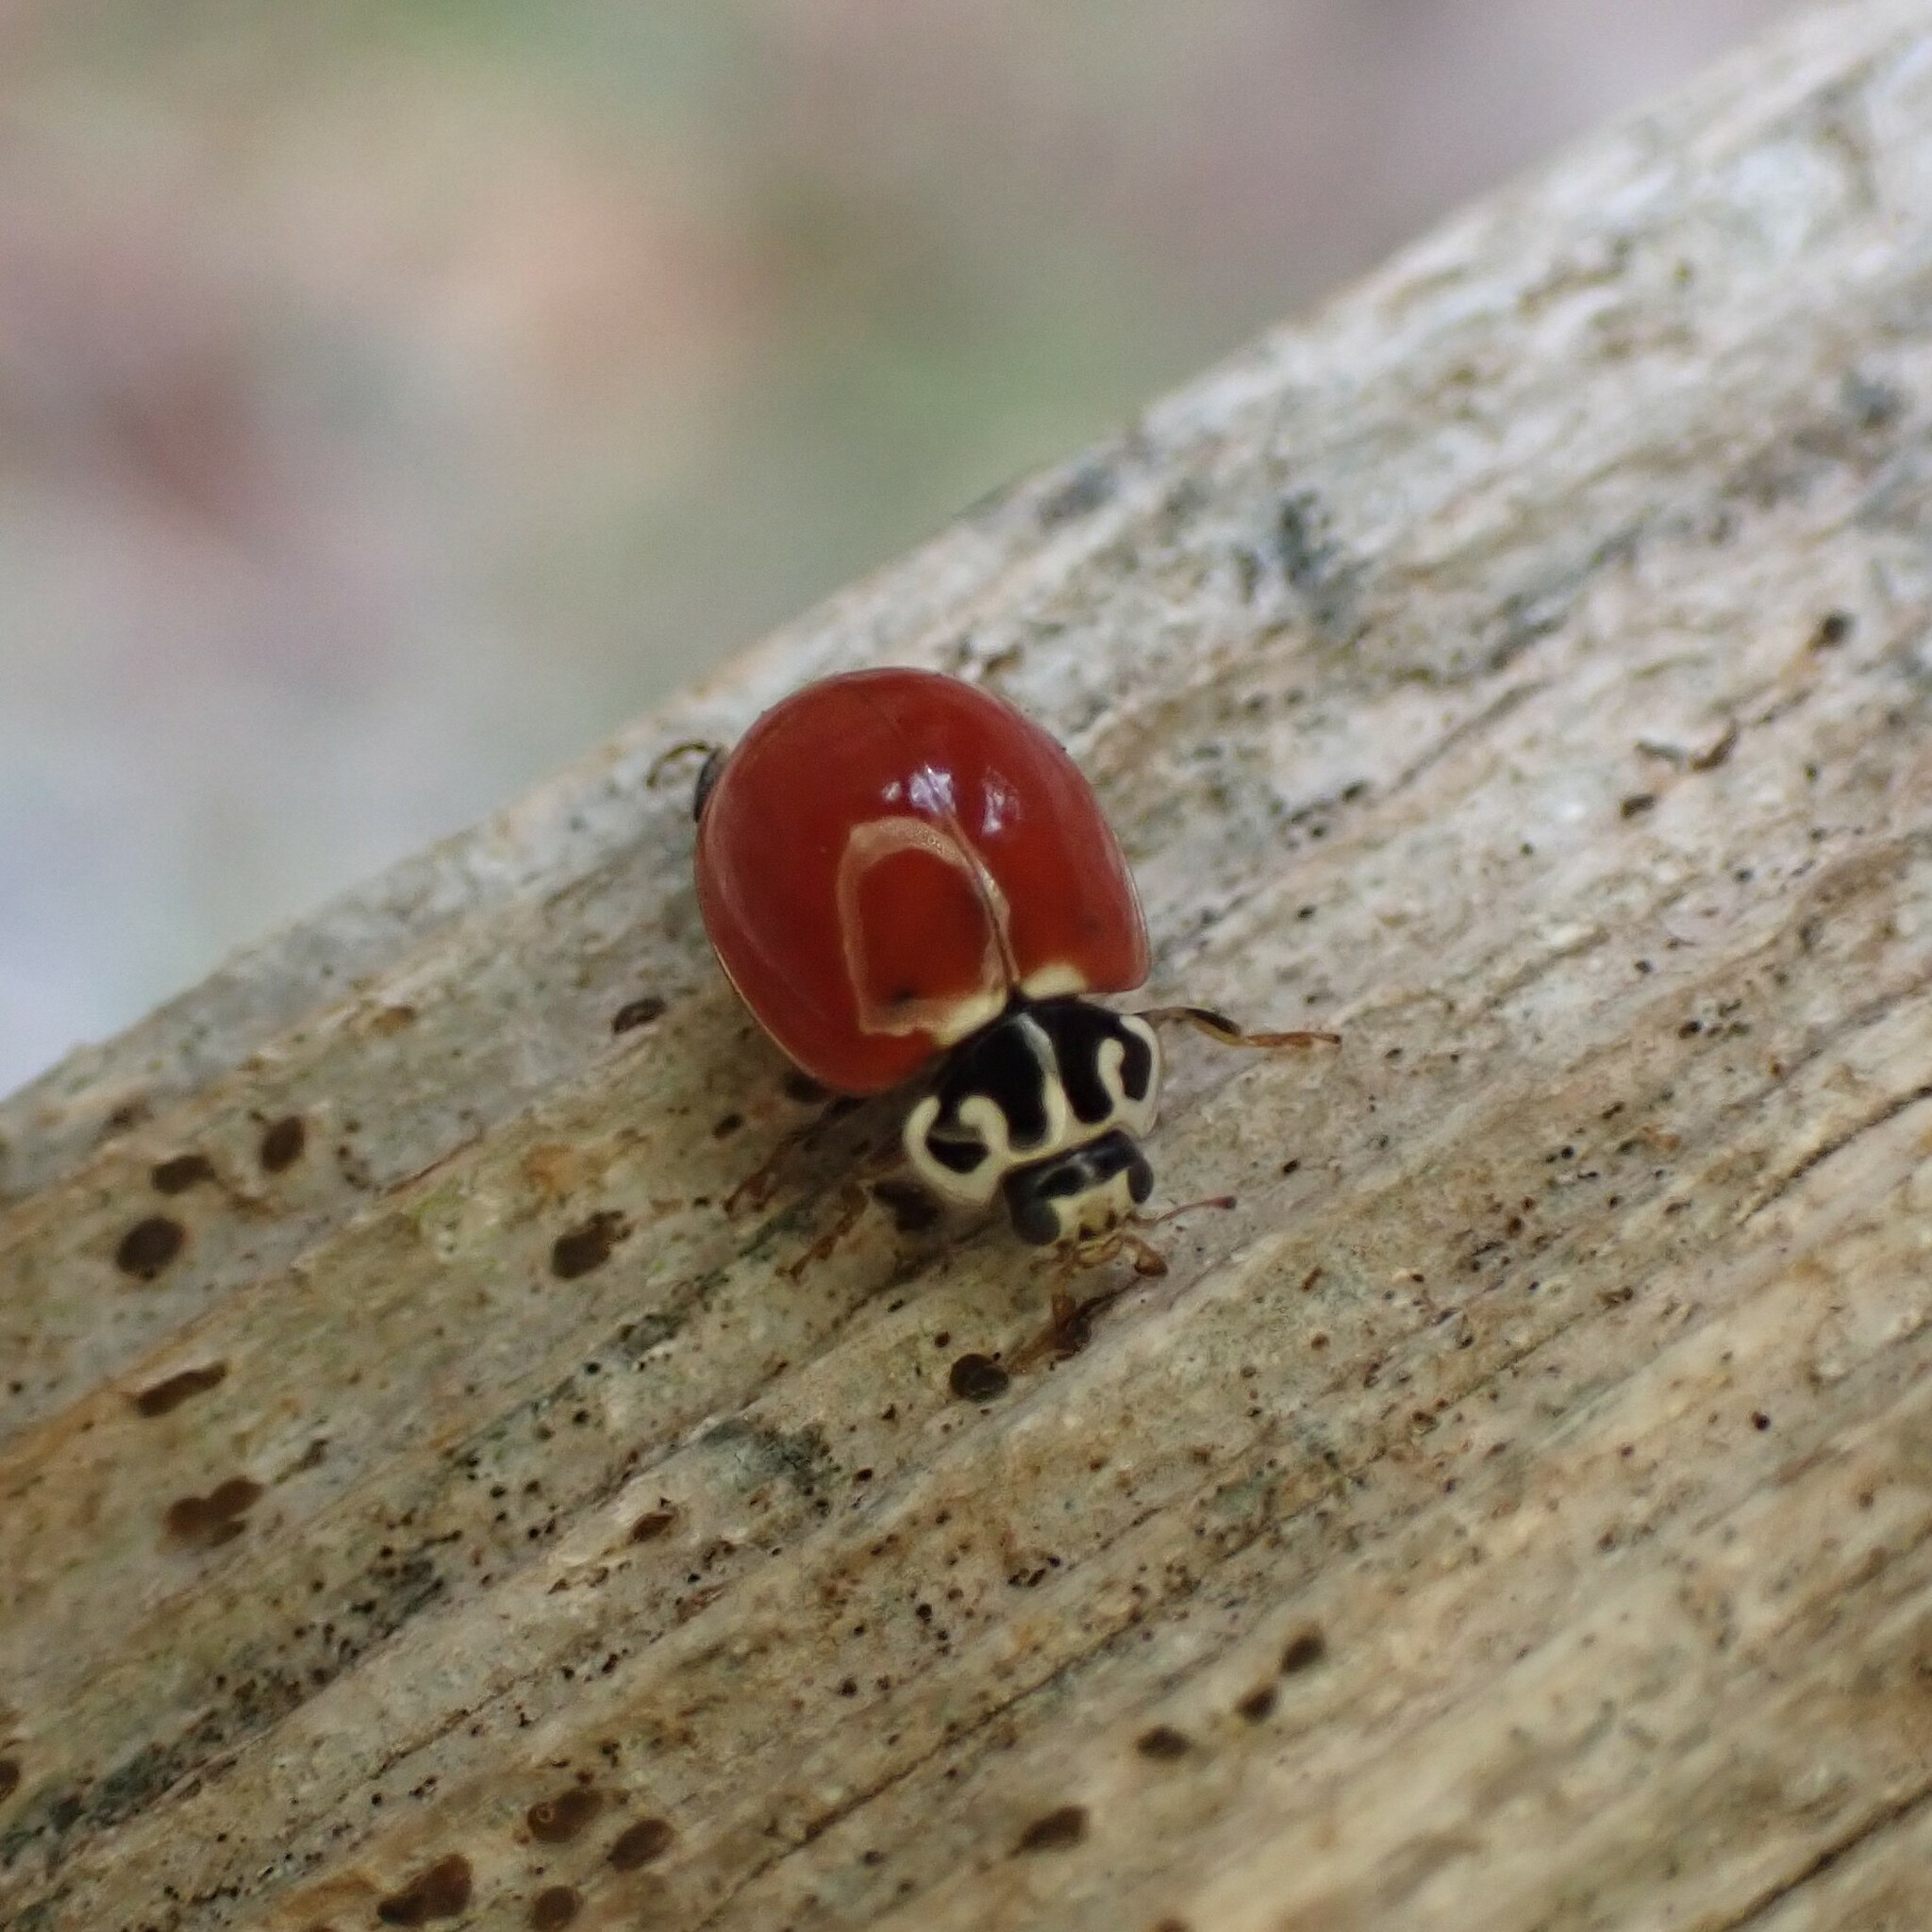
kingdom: Animalia
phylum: Arthropoda
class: Insecta
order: Coleoptera
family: Coccinellidae
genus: Cycloneda
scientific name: Cycloneda polita
